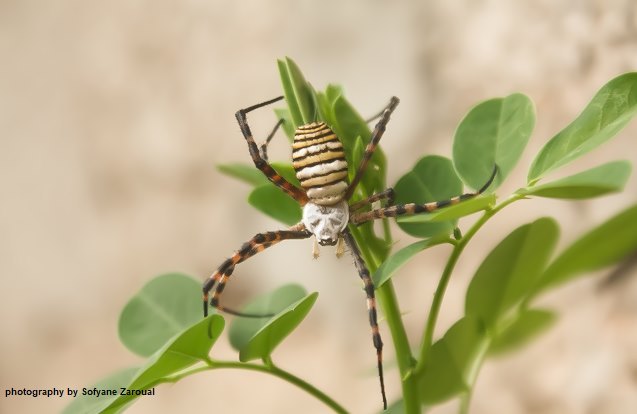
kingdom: Animalia
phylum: Arthropoda
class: Arachnida
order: Araneae
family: Araneidae
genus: Argiope
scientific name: Argiope trifasciata
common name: Banded garden spider
